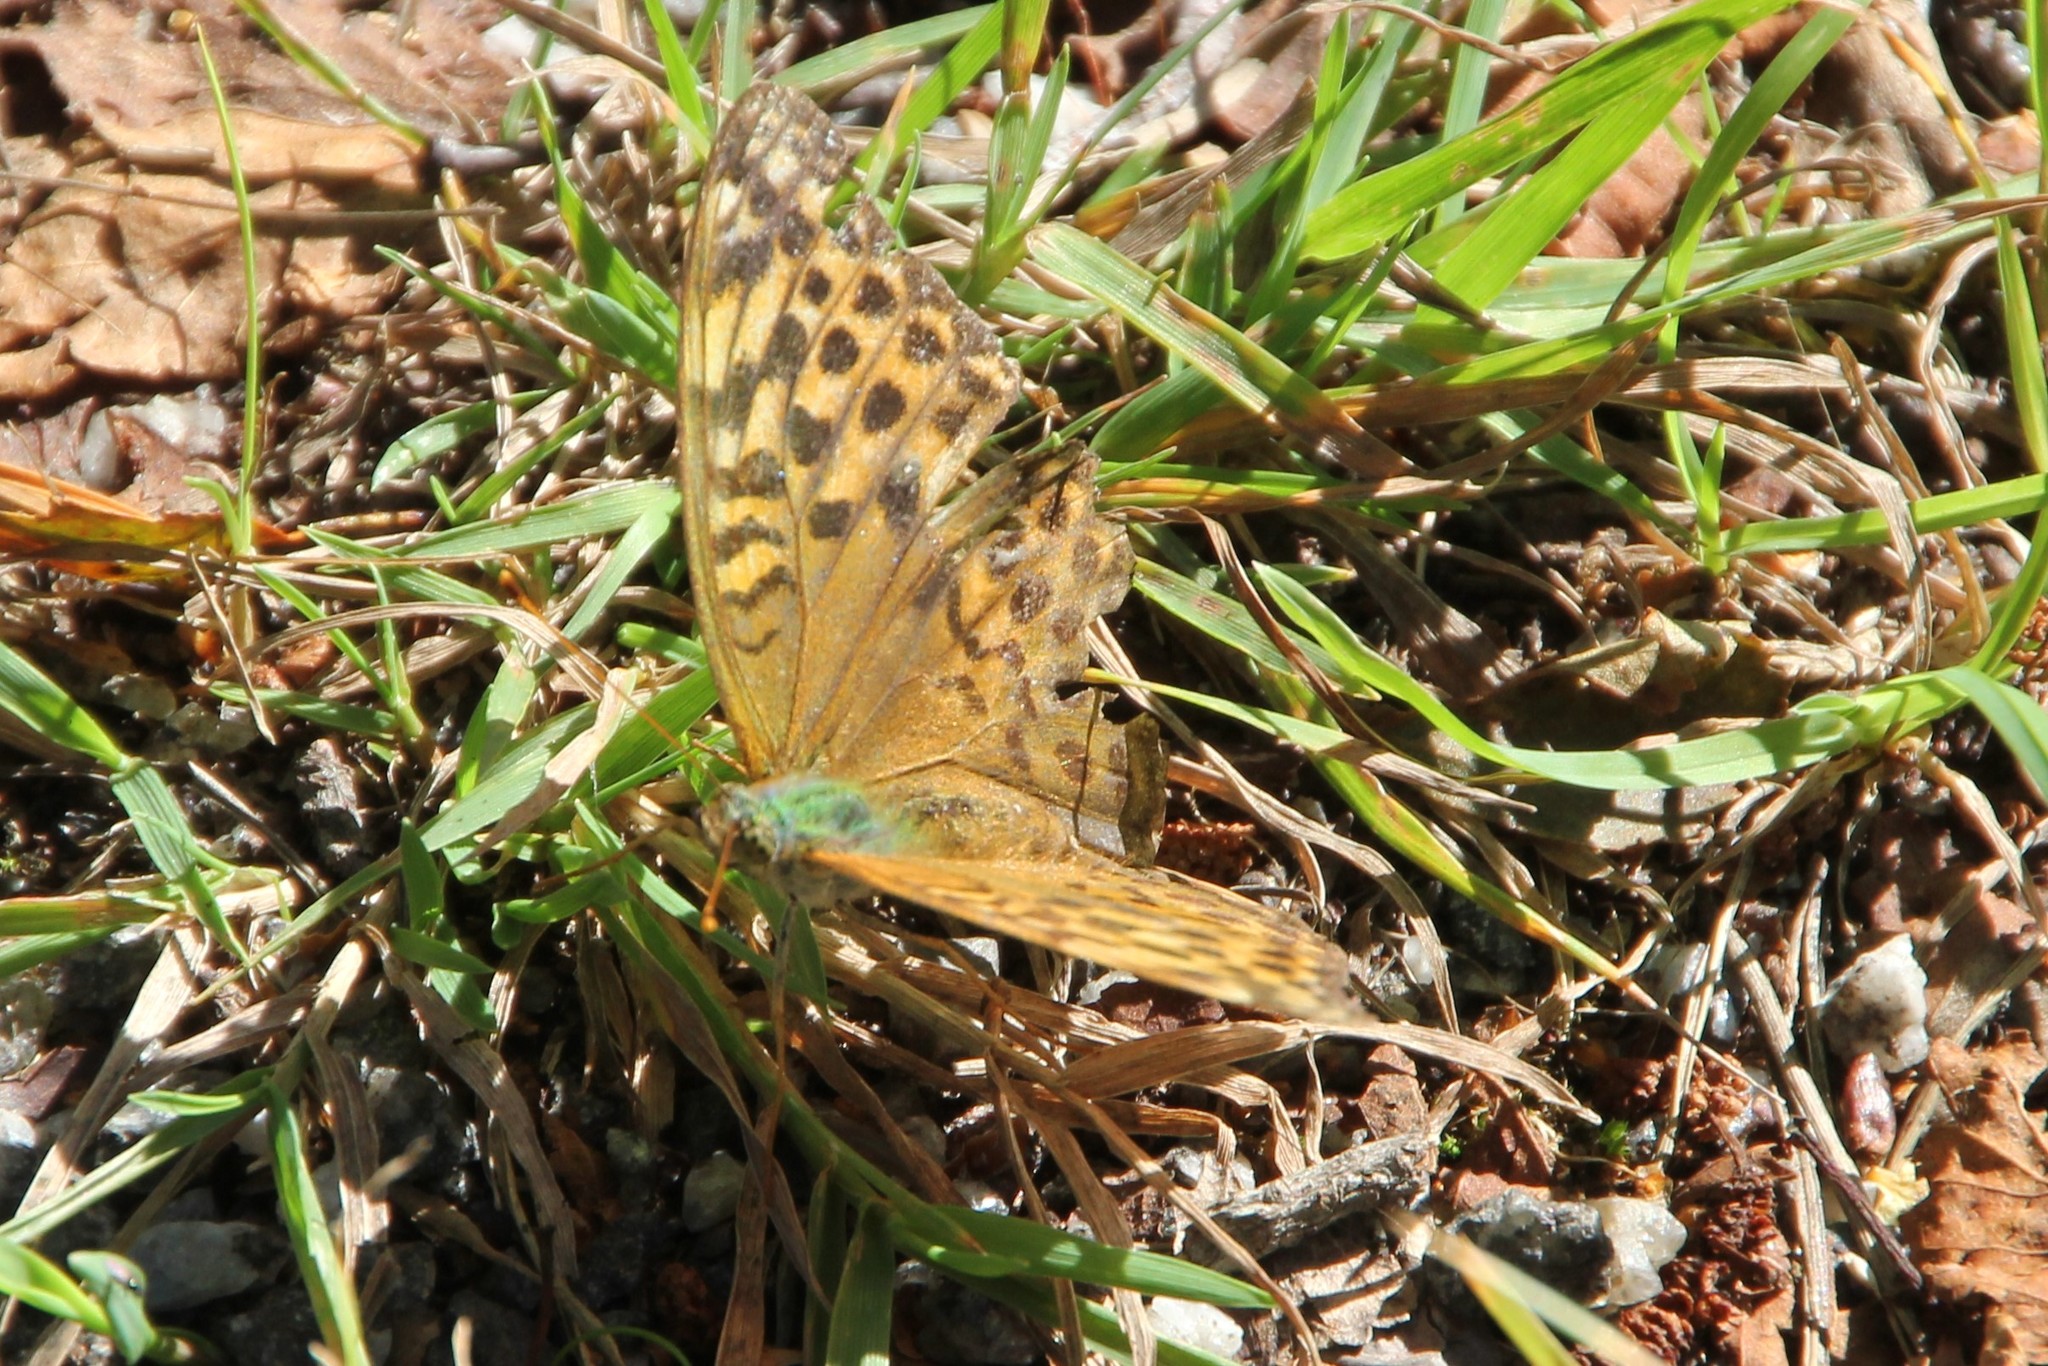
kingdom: Animalia
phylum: Arthropoda
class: Insecta
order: Lepidoptera
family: Nymphalidae
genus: Argynnis
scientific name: Argynnis paphia
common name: Silver-washed fritillary
